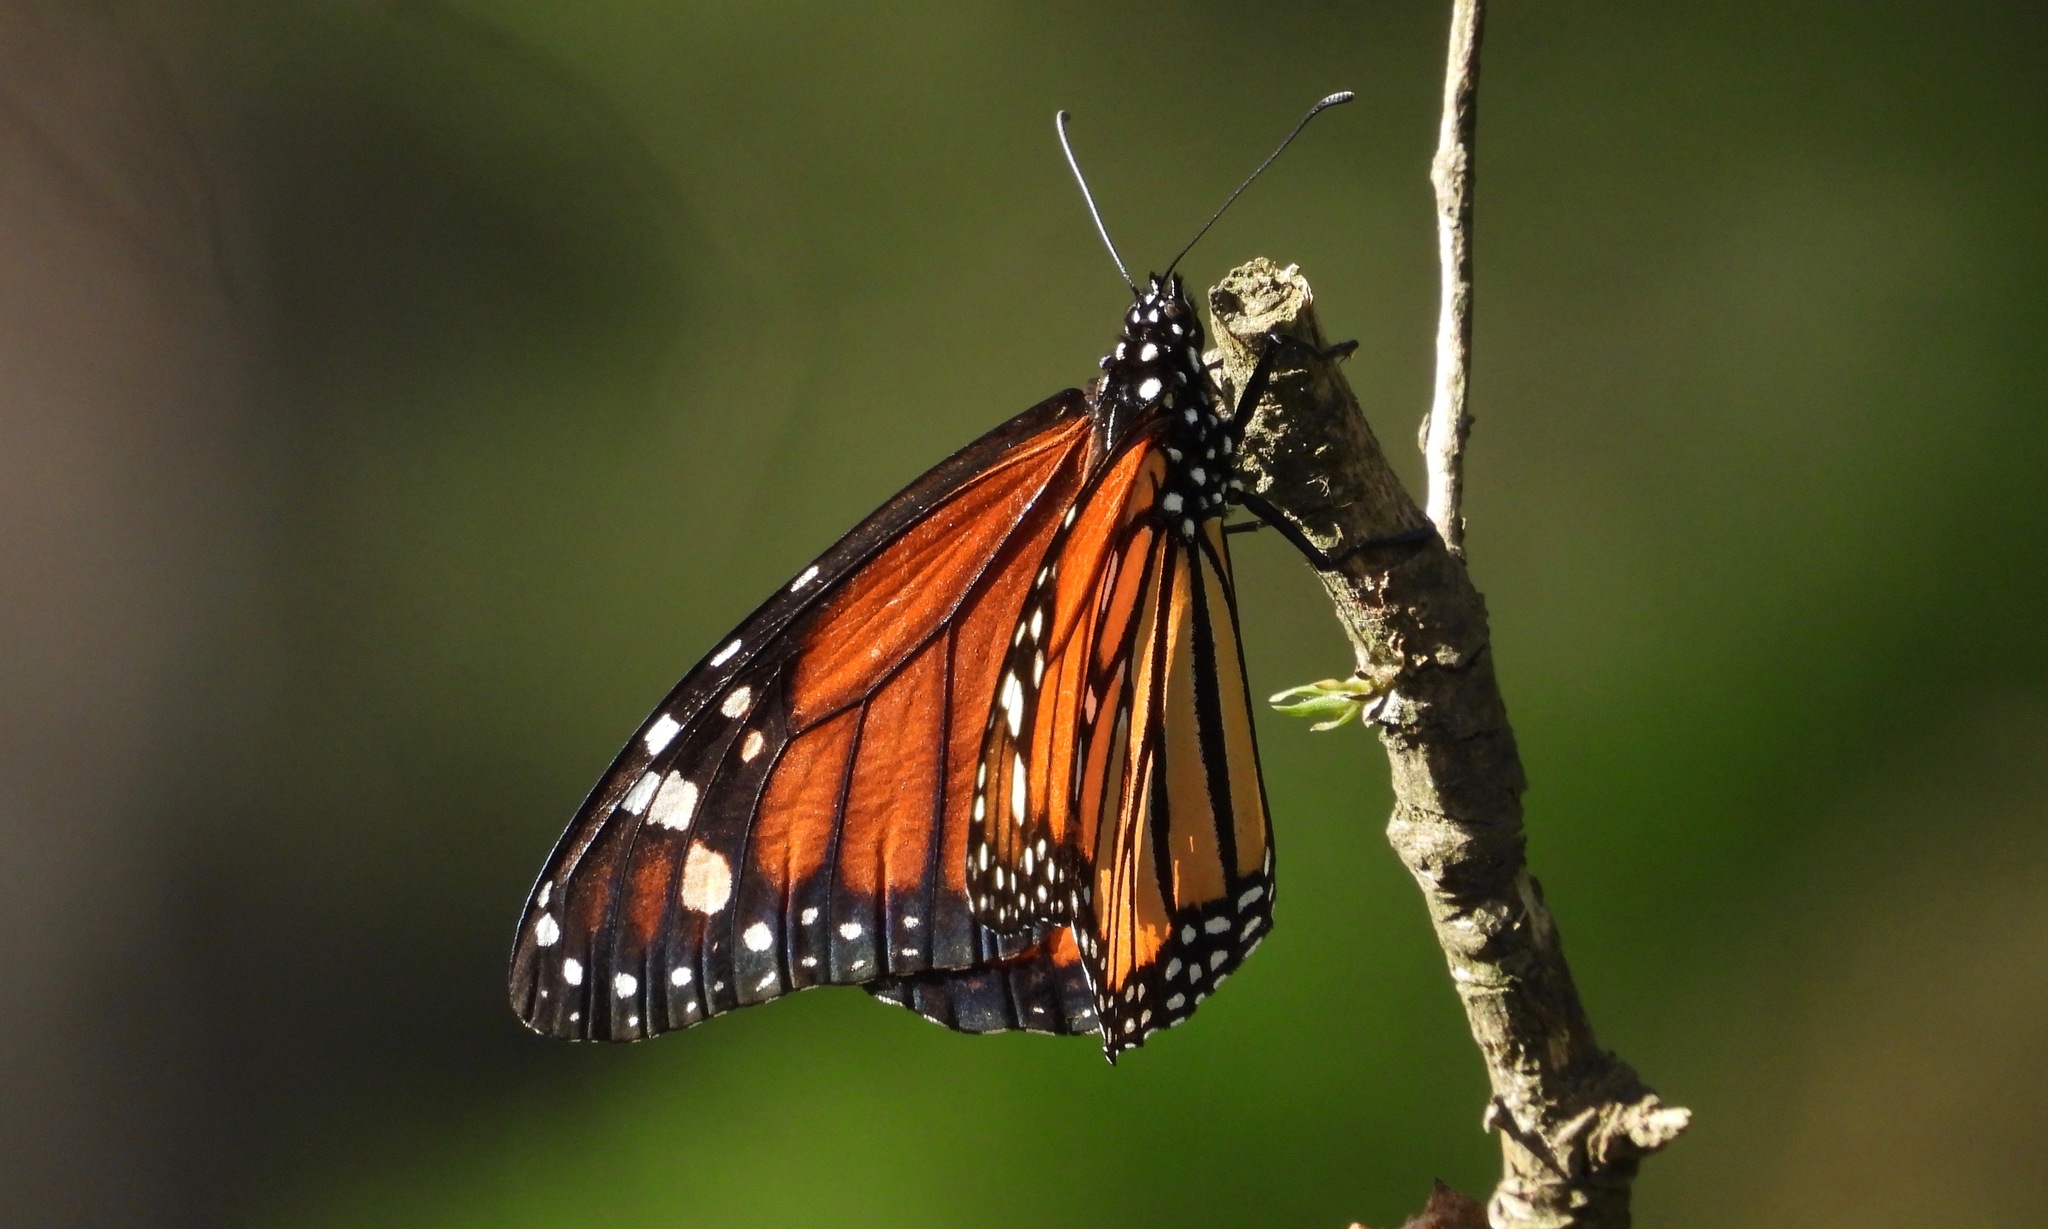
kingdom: Animalia
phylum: Arthropoda
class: Insecta
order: Lepidoptera
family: Nymphalidae
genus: Danaus
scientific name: Danaus plexippus
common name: Monarch
